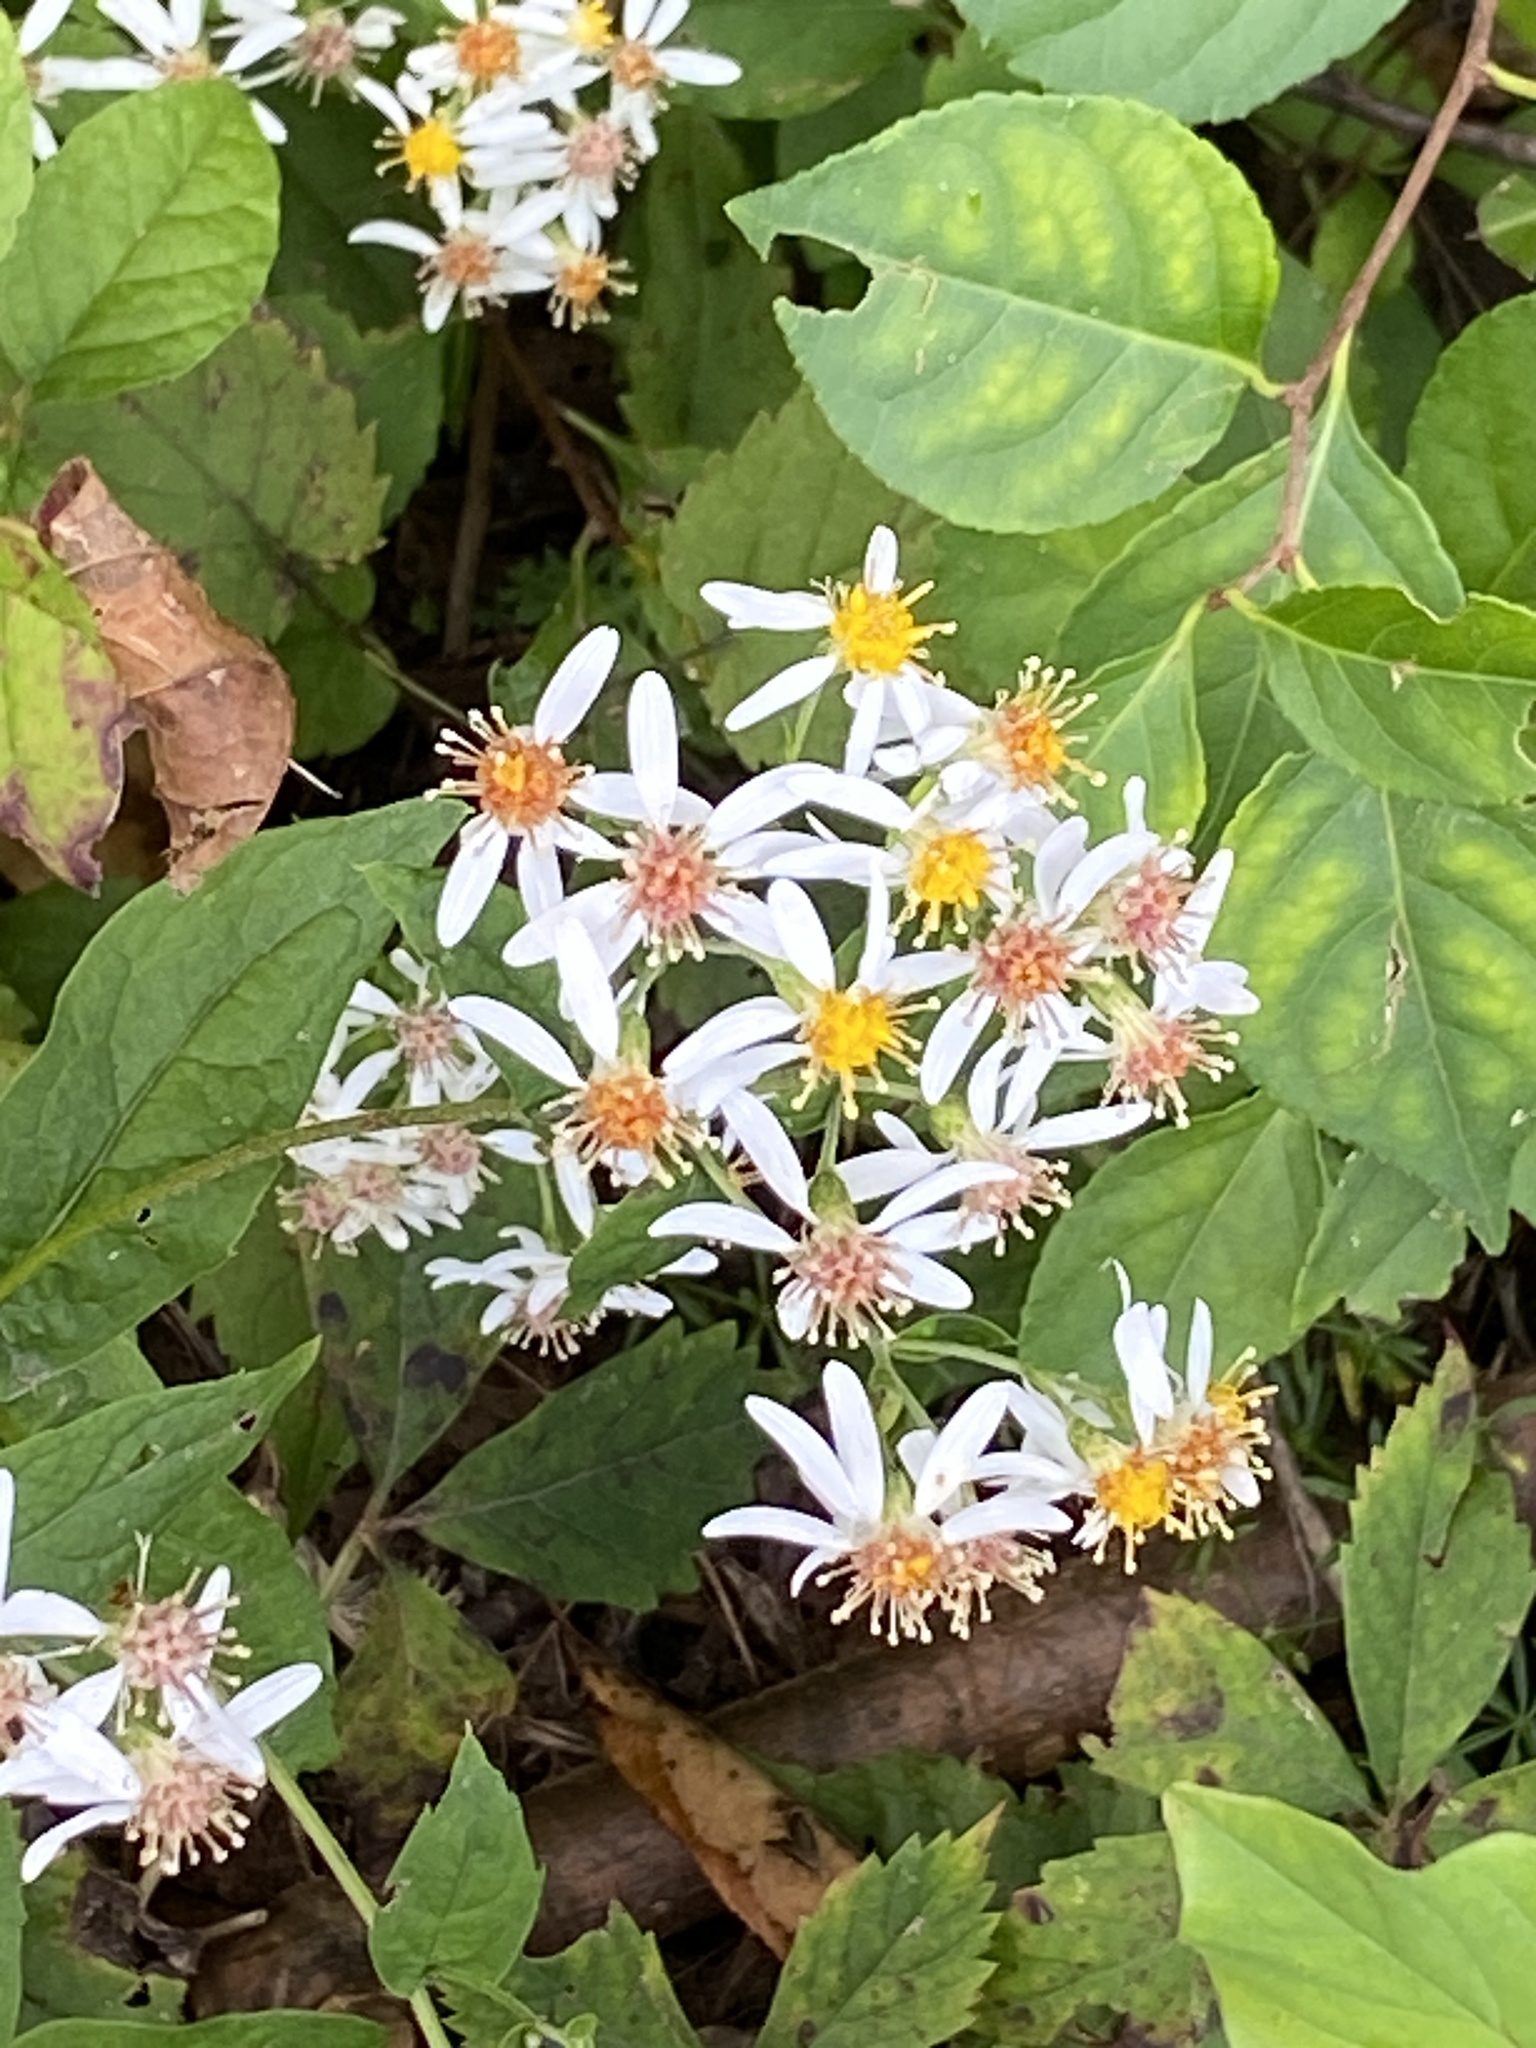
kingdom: Plantae
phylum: Tracheophyta
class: Magnoliopsida
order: Asterales
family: Asteraceae
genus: Eurybia
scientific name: Eurybia divaricata
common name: White wood aster
